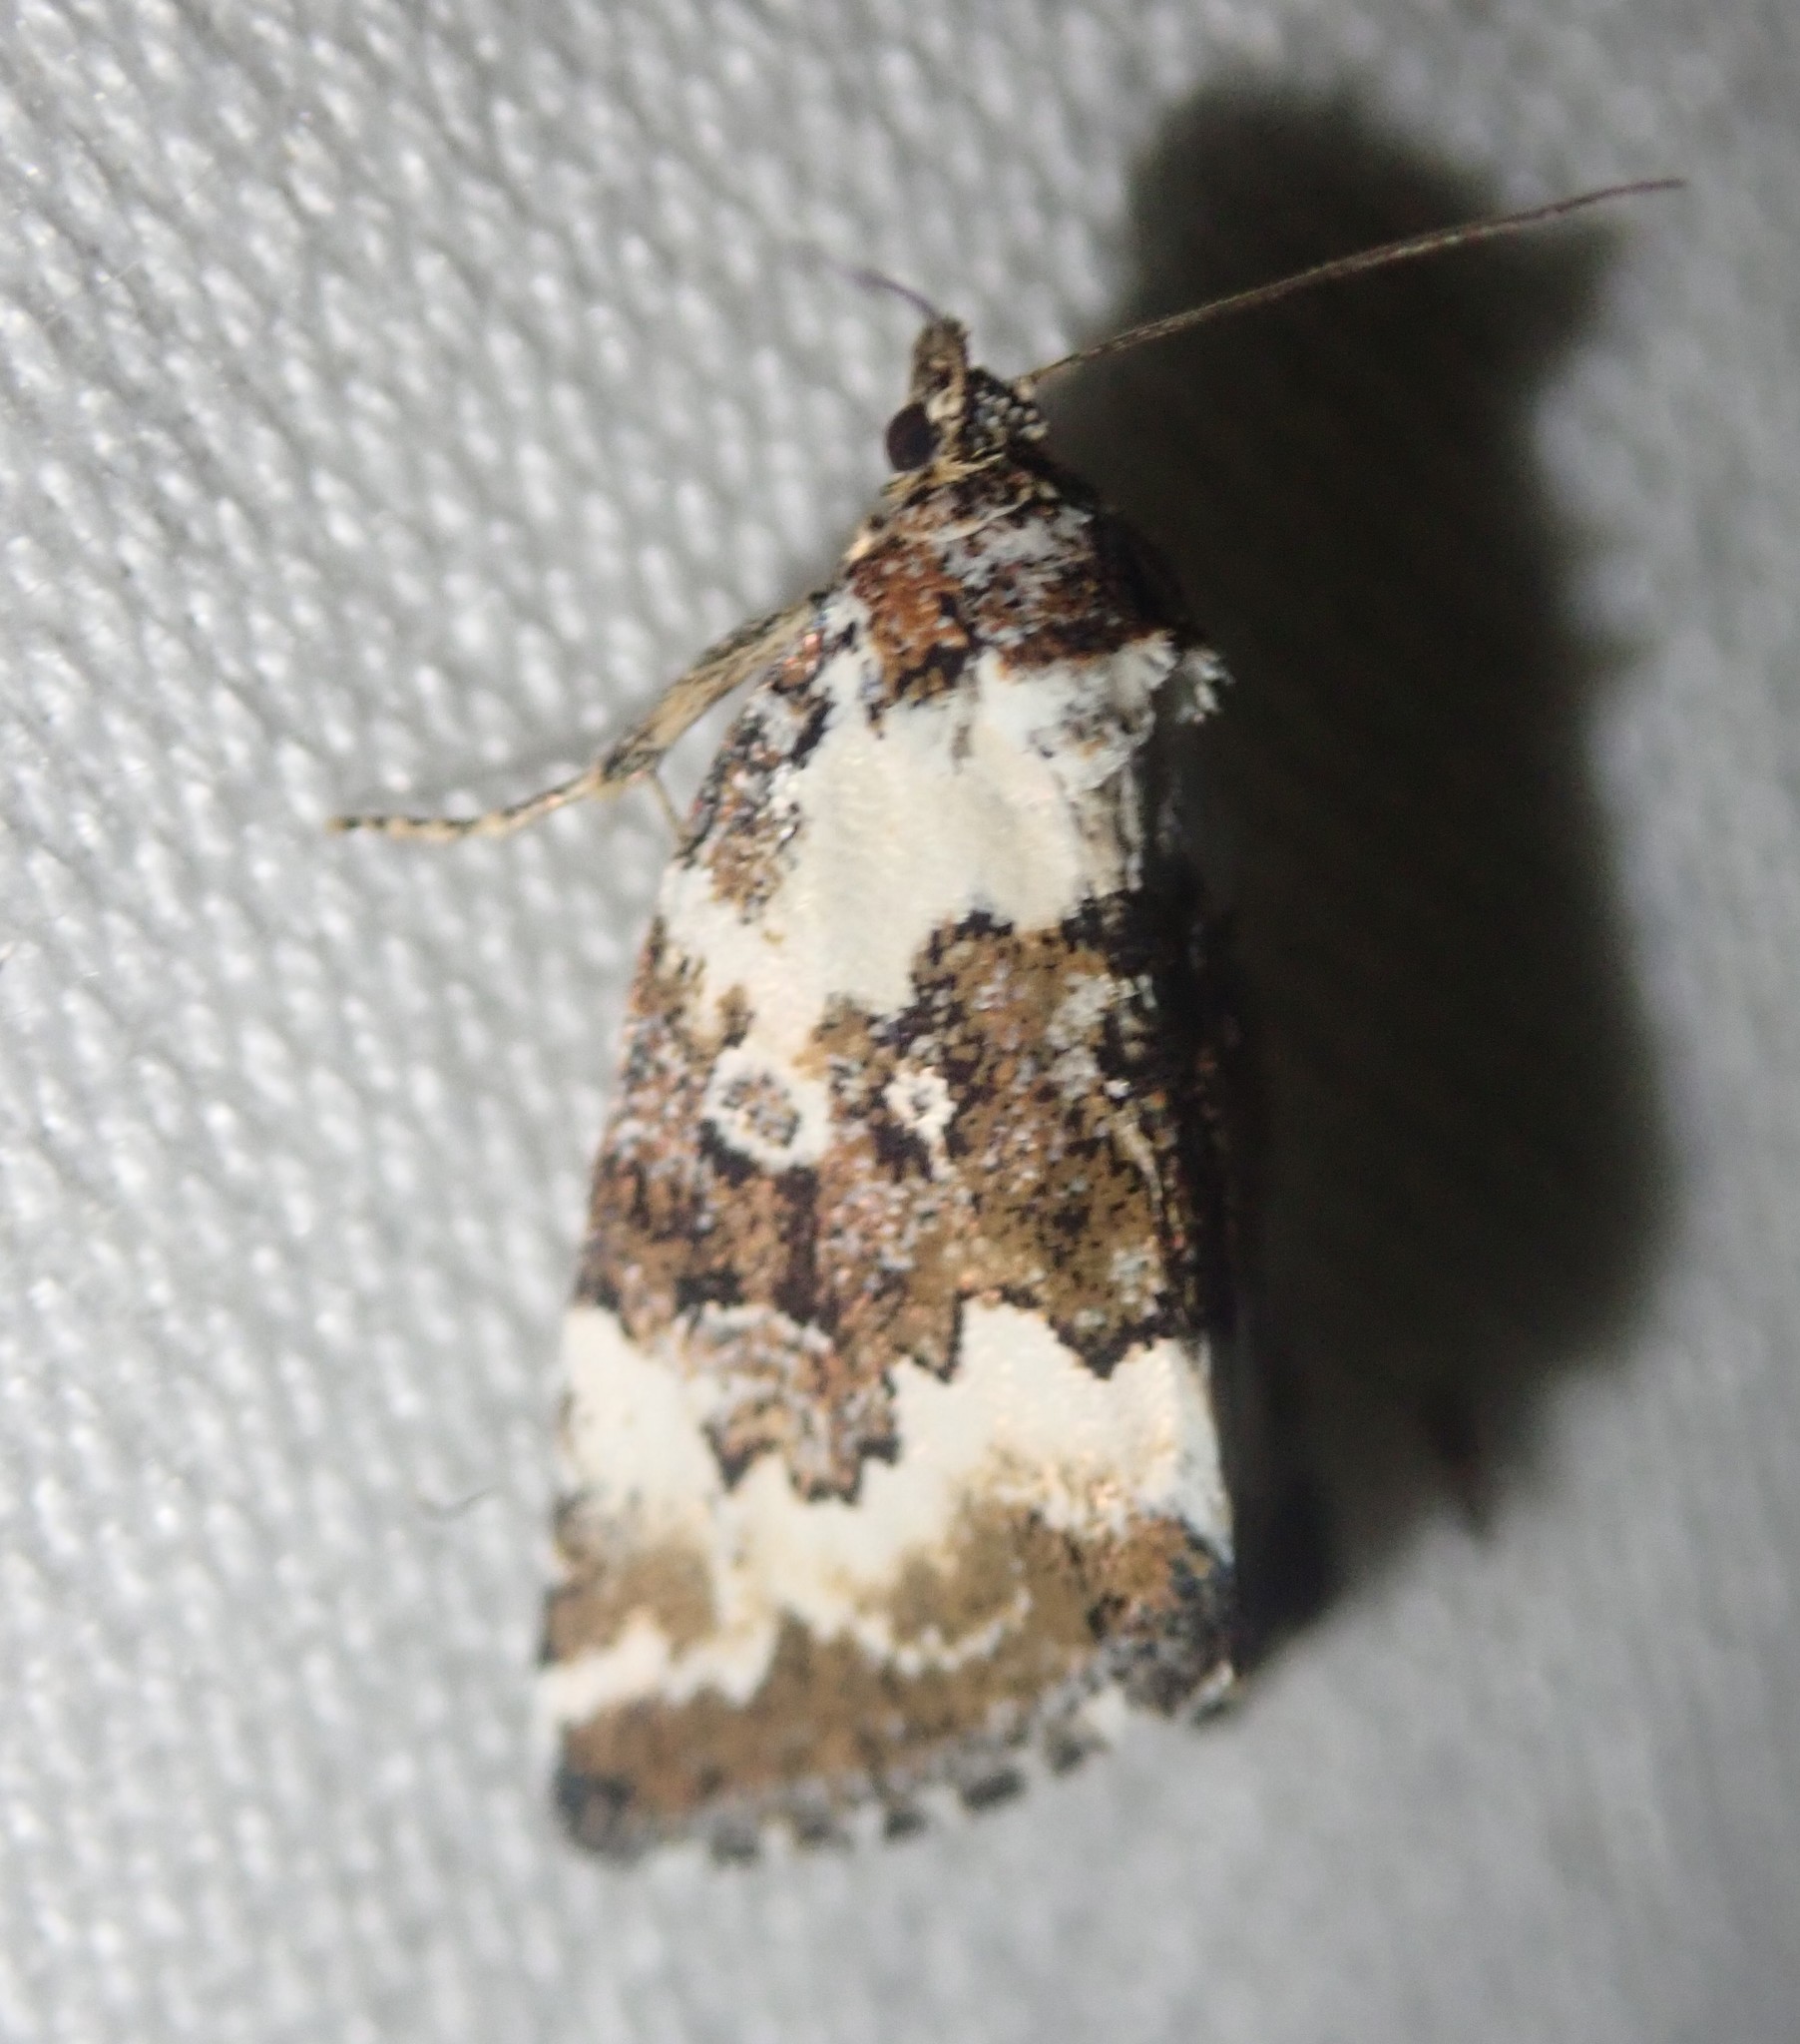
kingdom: Animalia
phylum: Arthropoda
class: Insecta
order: Lepidoptera
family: Noctuidae
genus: Deltote
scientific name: Deltote deceptoria
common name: Pretty marbled
